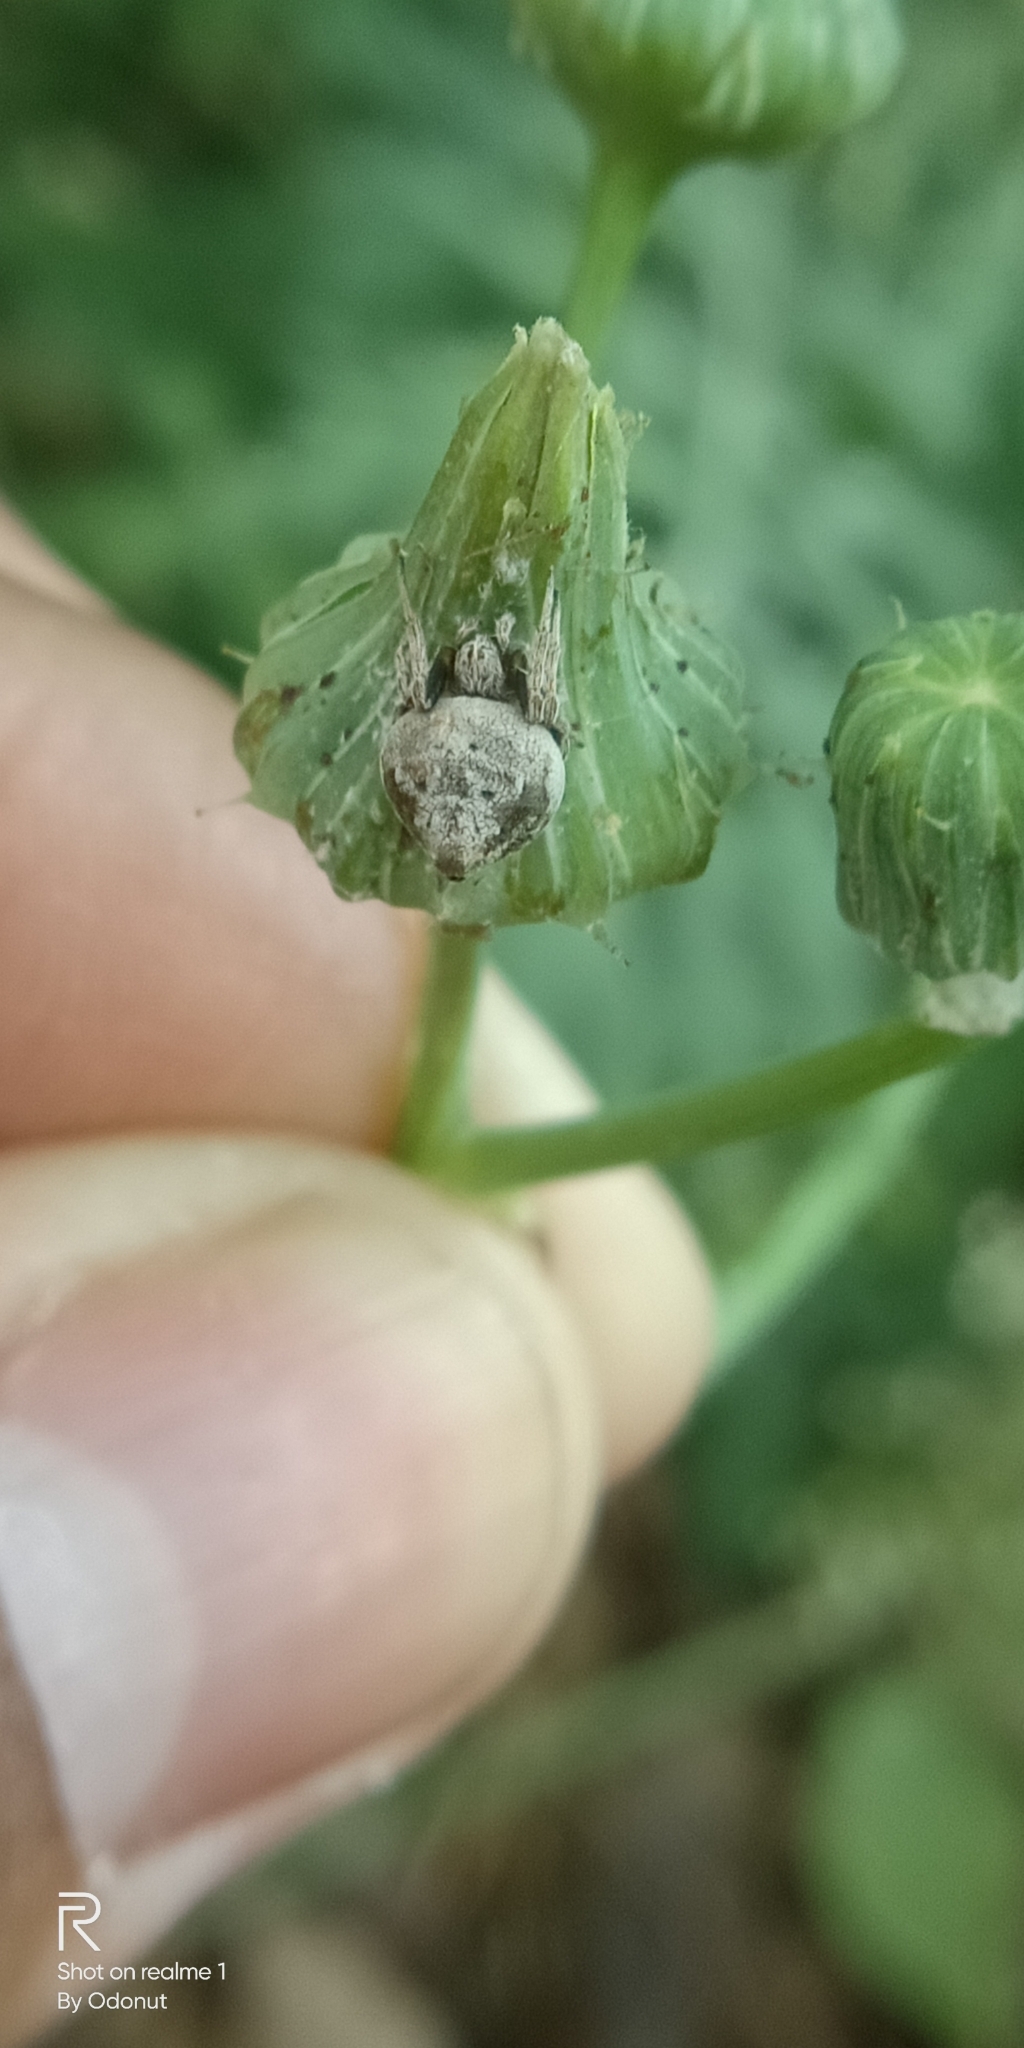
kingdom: Animalia
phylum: Arthropoda
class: Arachnida
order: Araneae
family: Araneidae
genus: Eriovixia
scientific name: Eriovixia excelsa
